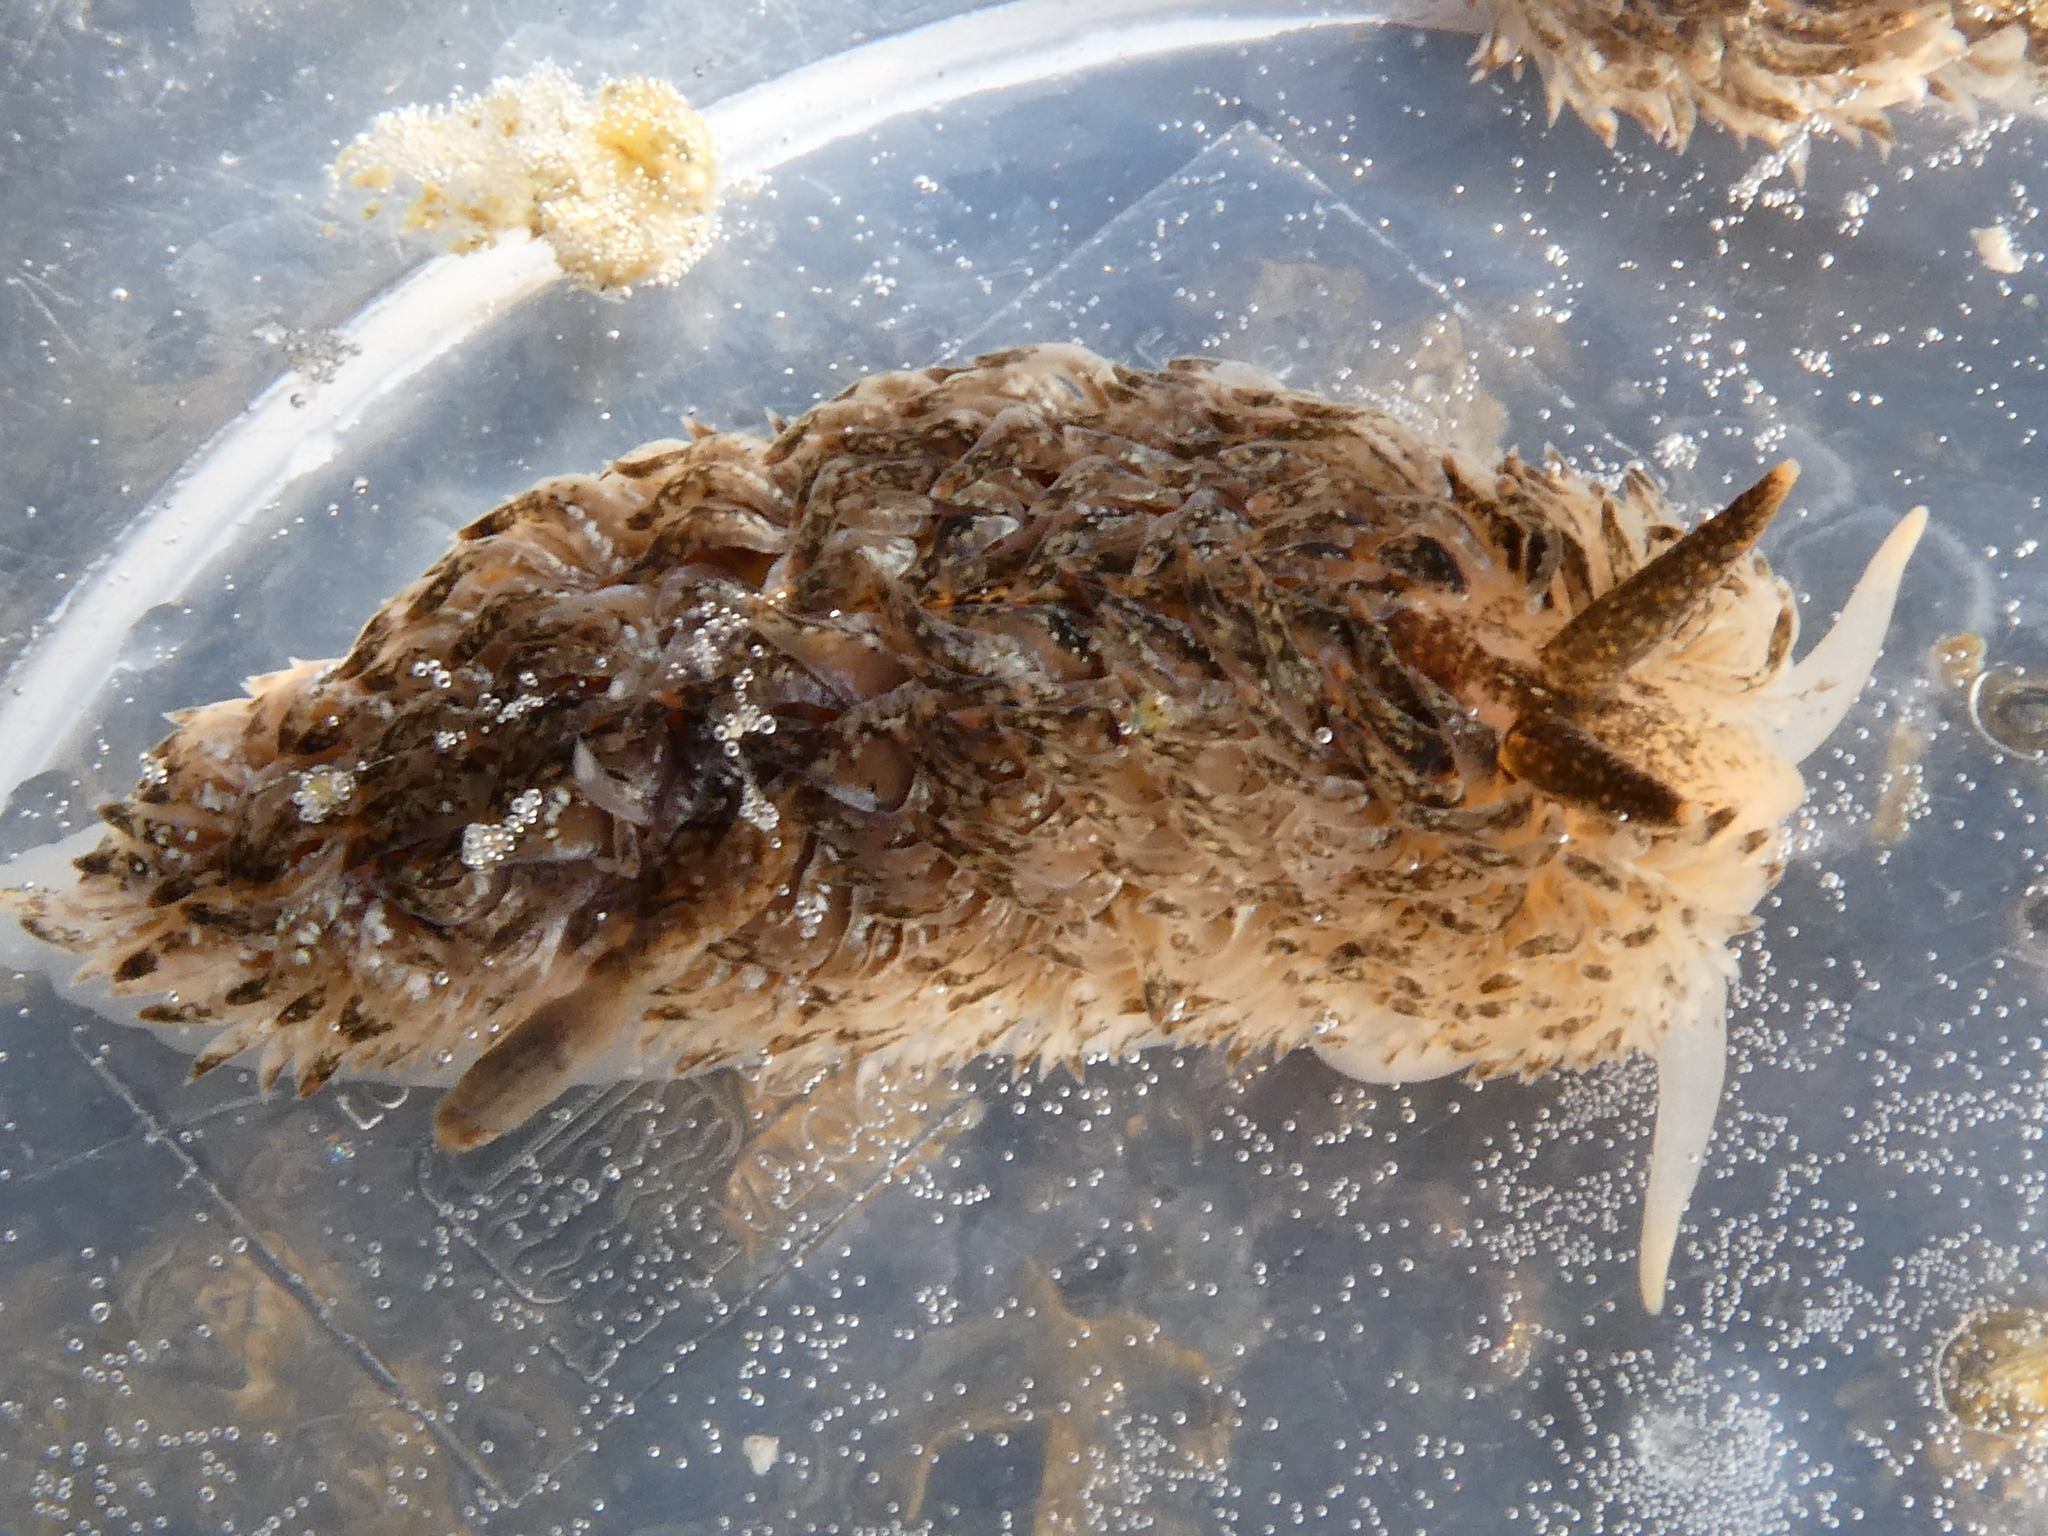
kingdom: Animalia
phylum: Mollusca
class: Gastropoda
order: Nudibranchia
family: Aeolidiidae
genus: Aeolidia
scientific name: Aeolidia loui
